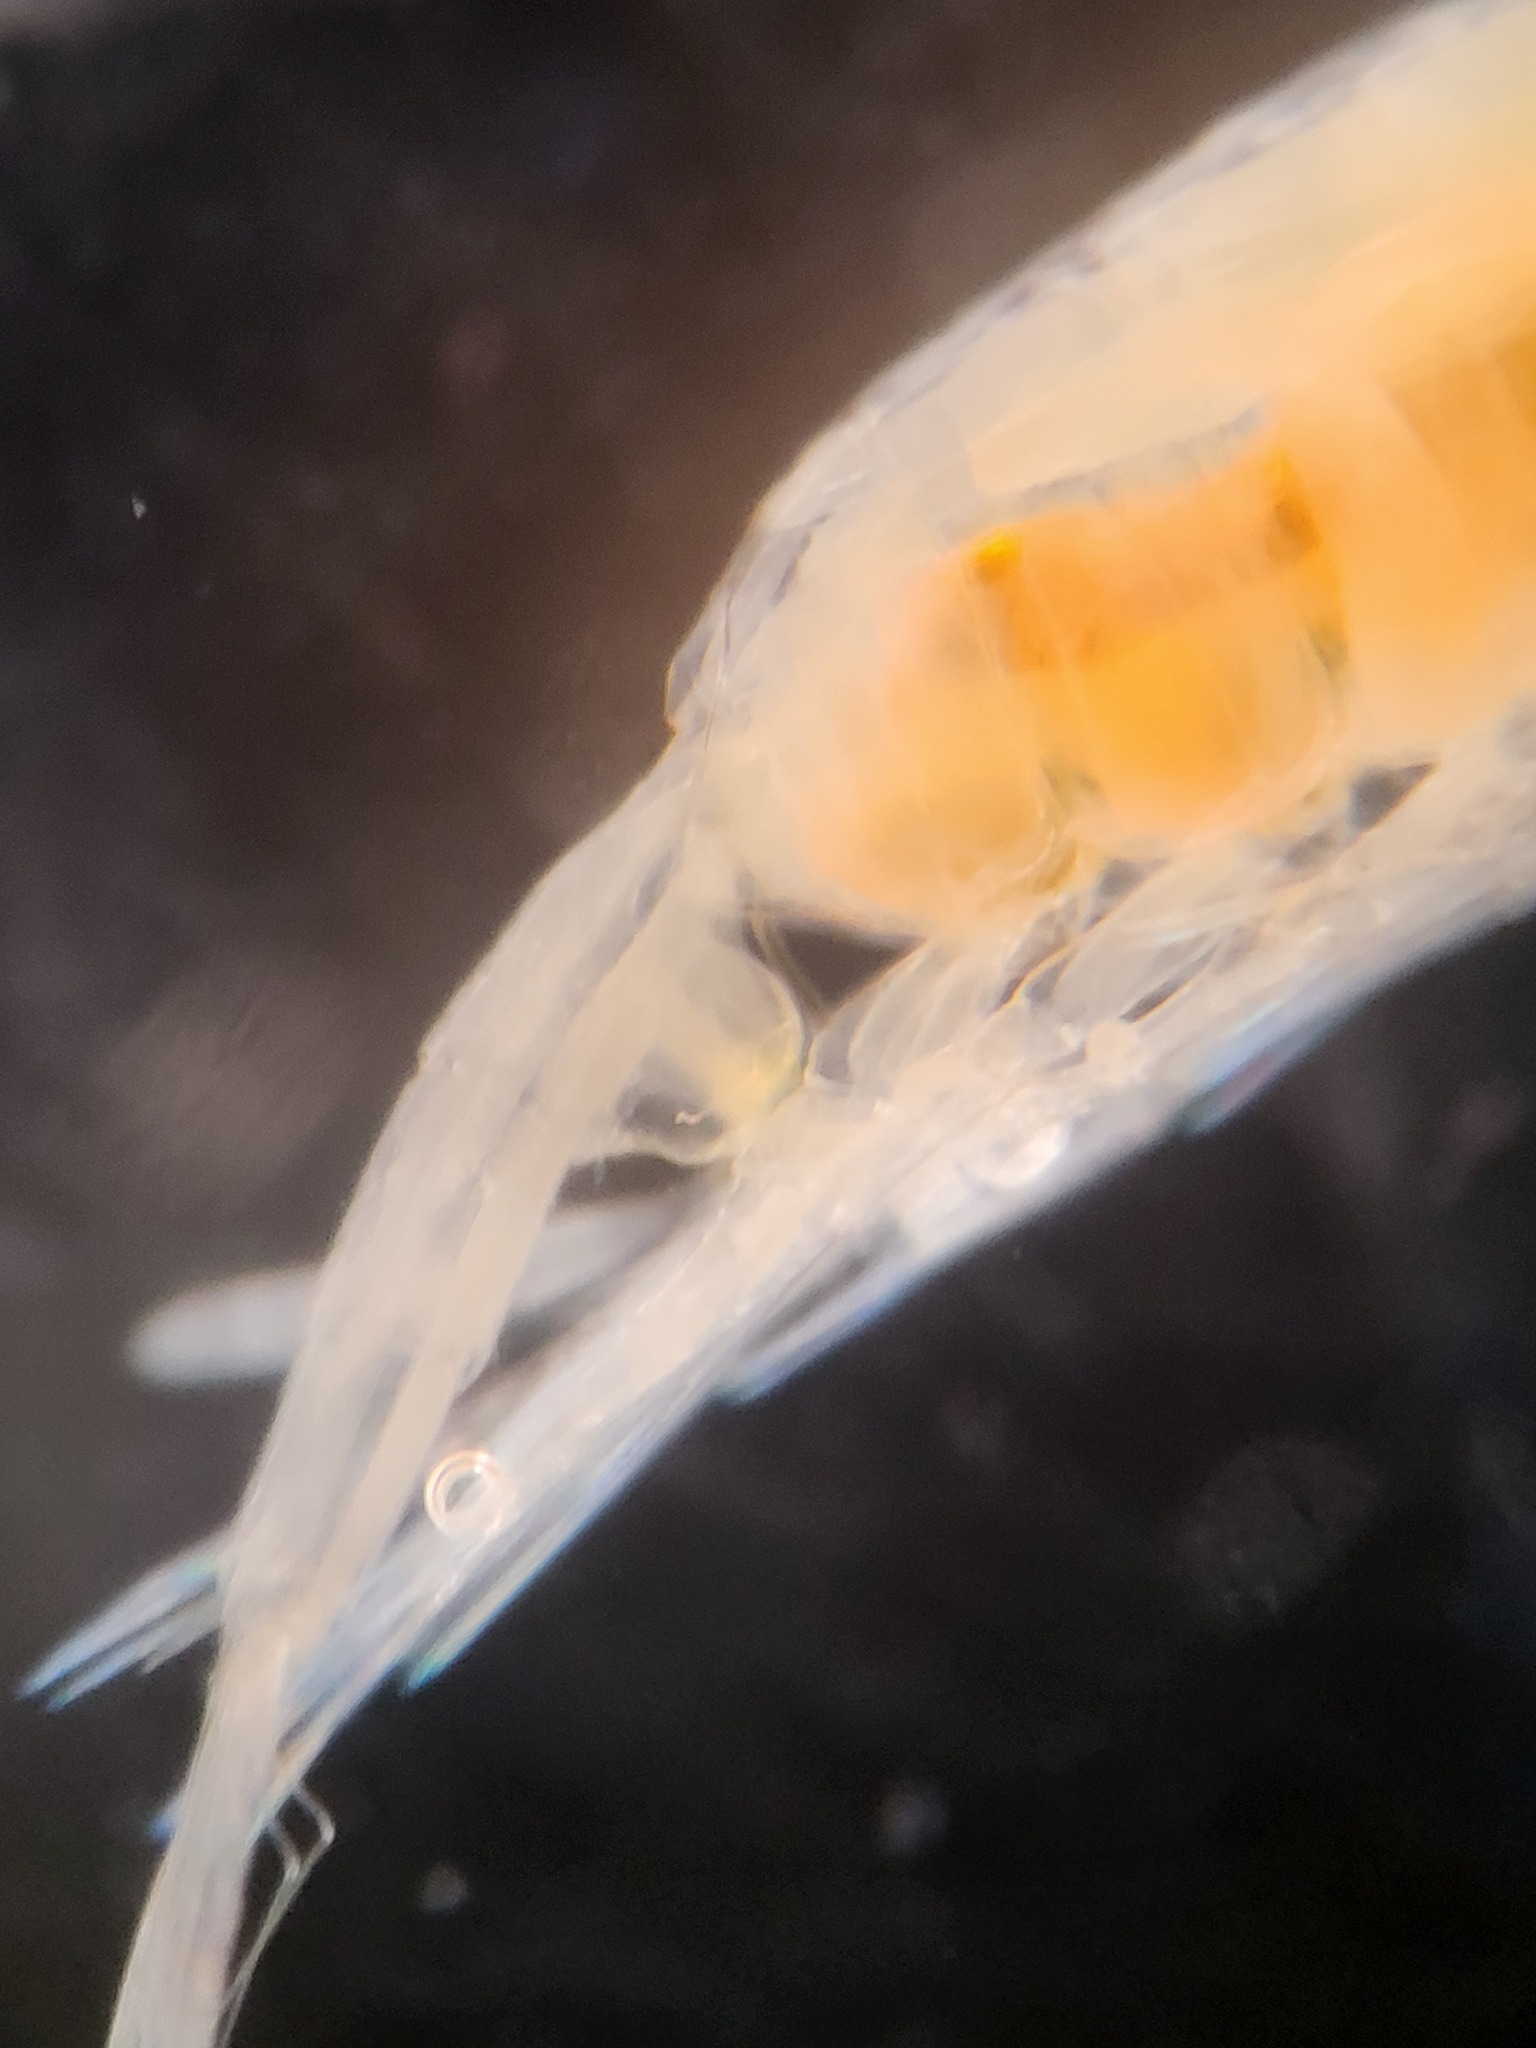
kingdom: Animalia
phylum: Arthropoda
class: Copepoda
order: Calanoida
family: Euchaetidae
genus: Paraeuchaeta
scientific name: Paraeuchaeta norvegica
